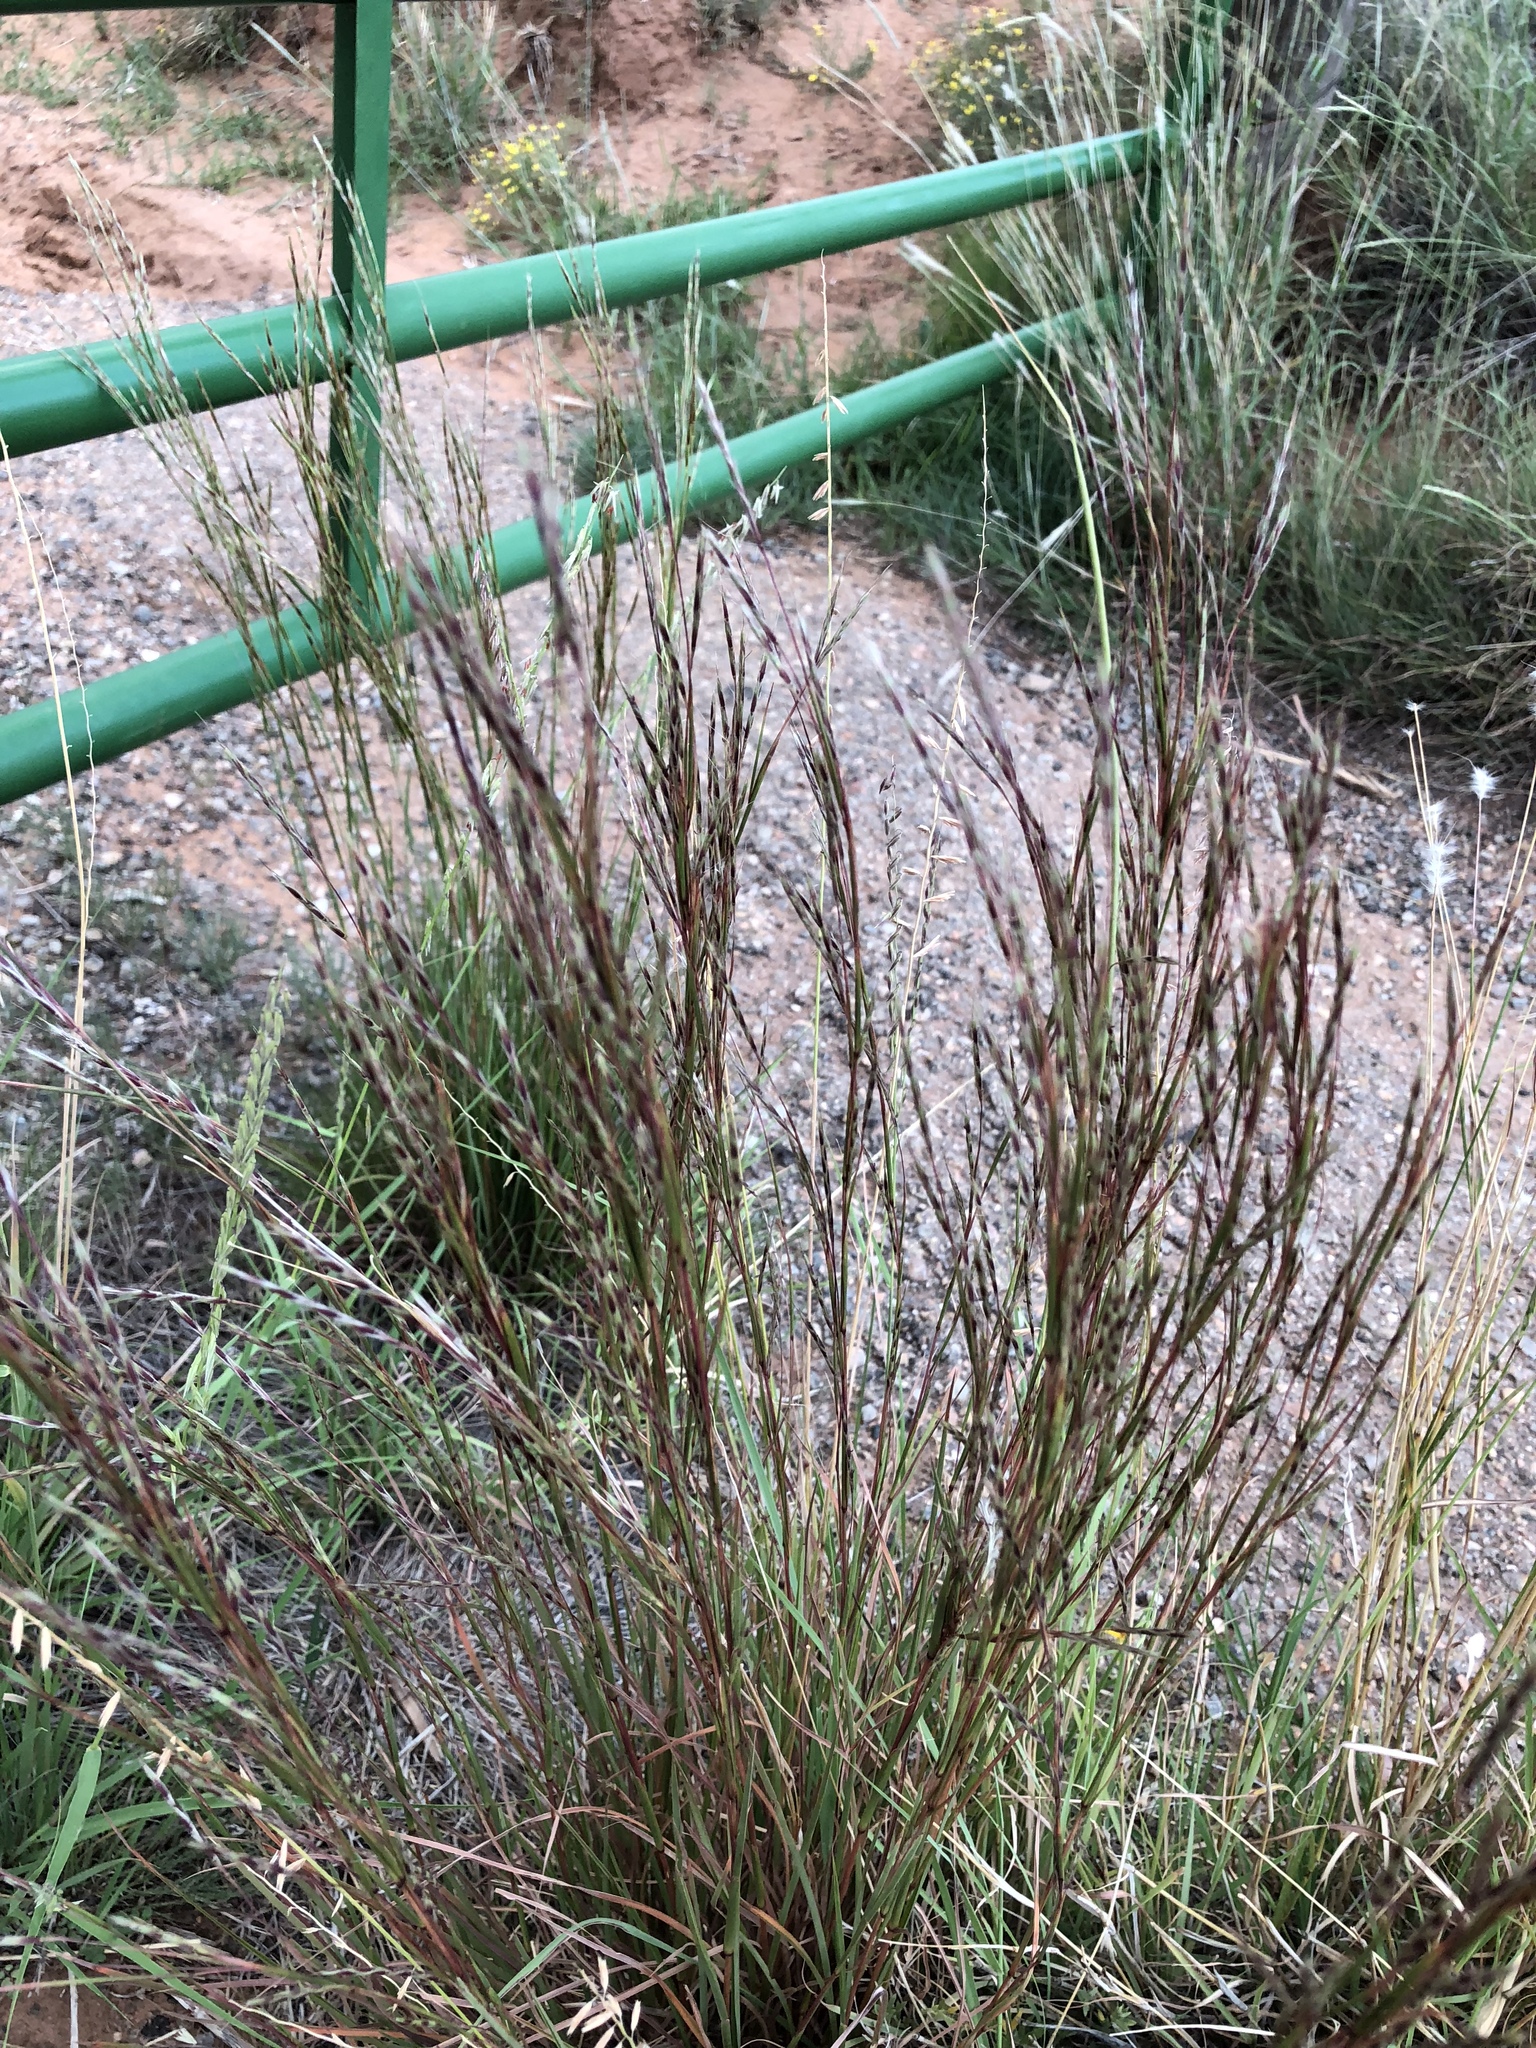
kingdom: Plantae
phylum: Tracheophyta
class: Liliopsida
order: Poales
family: Poaceae
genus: Schizachyrium
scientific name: Schizachyrium scoparium
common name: Little bluestem
